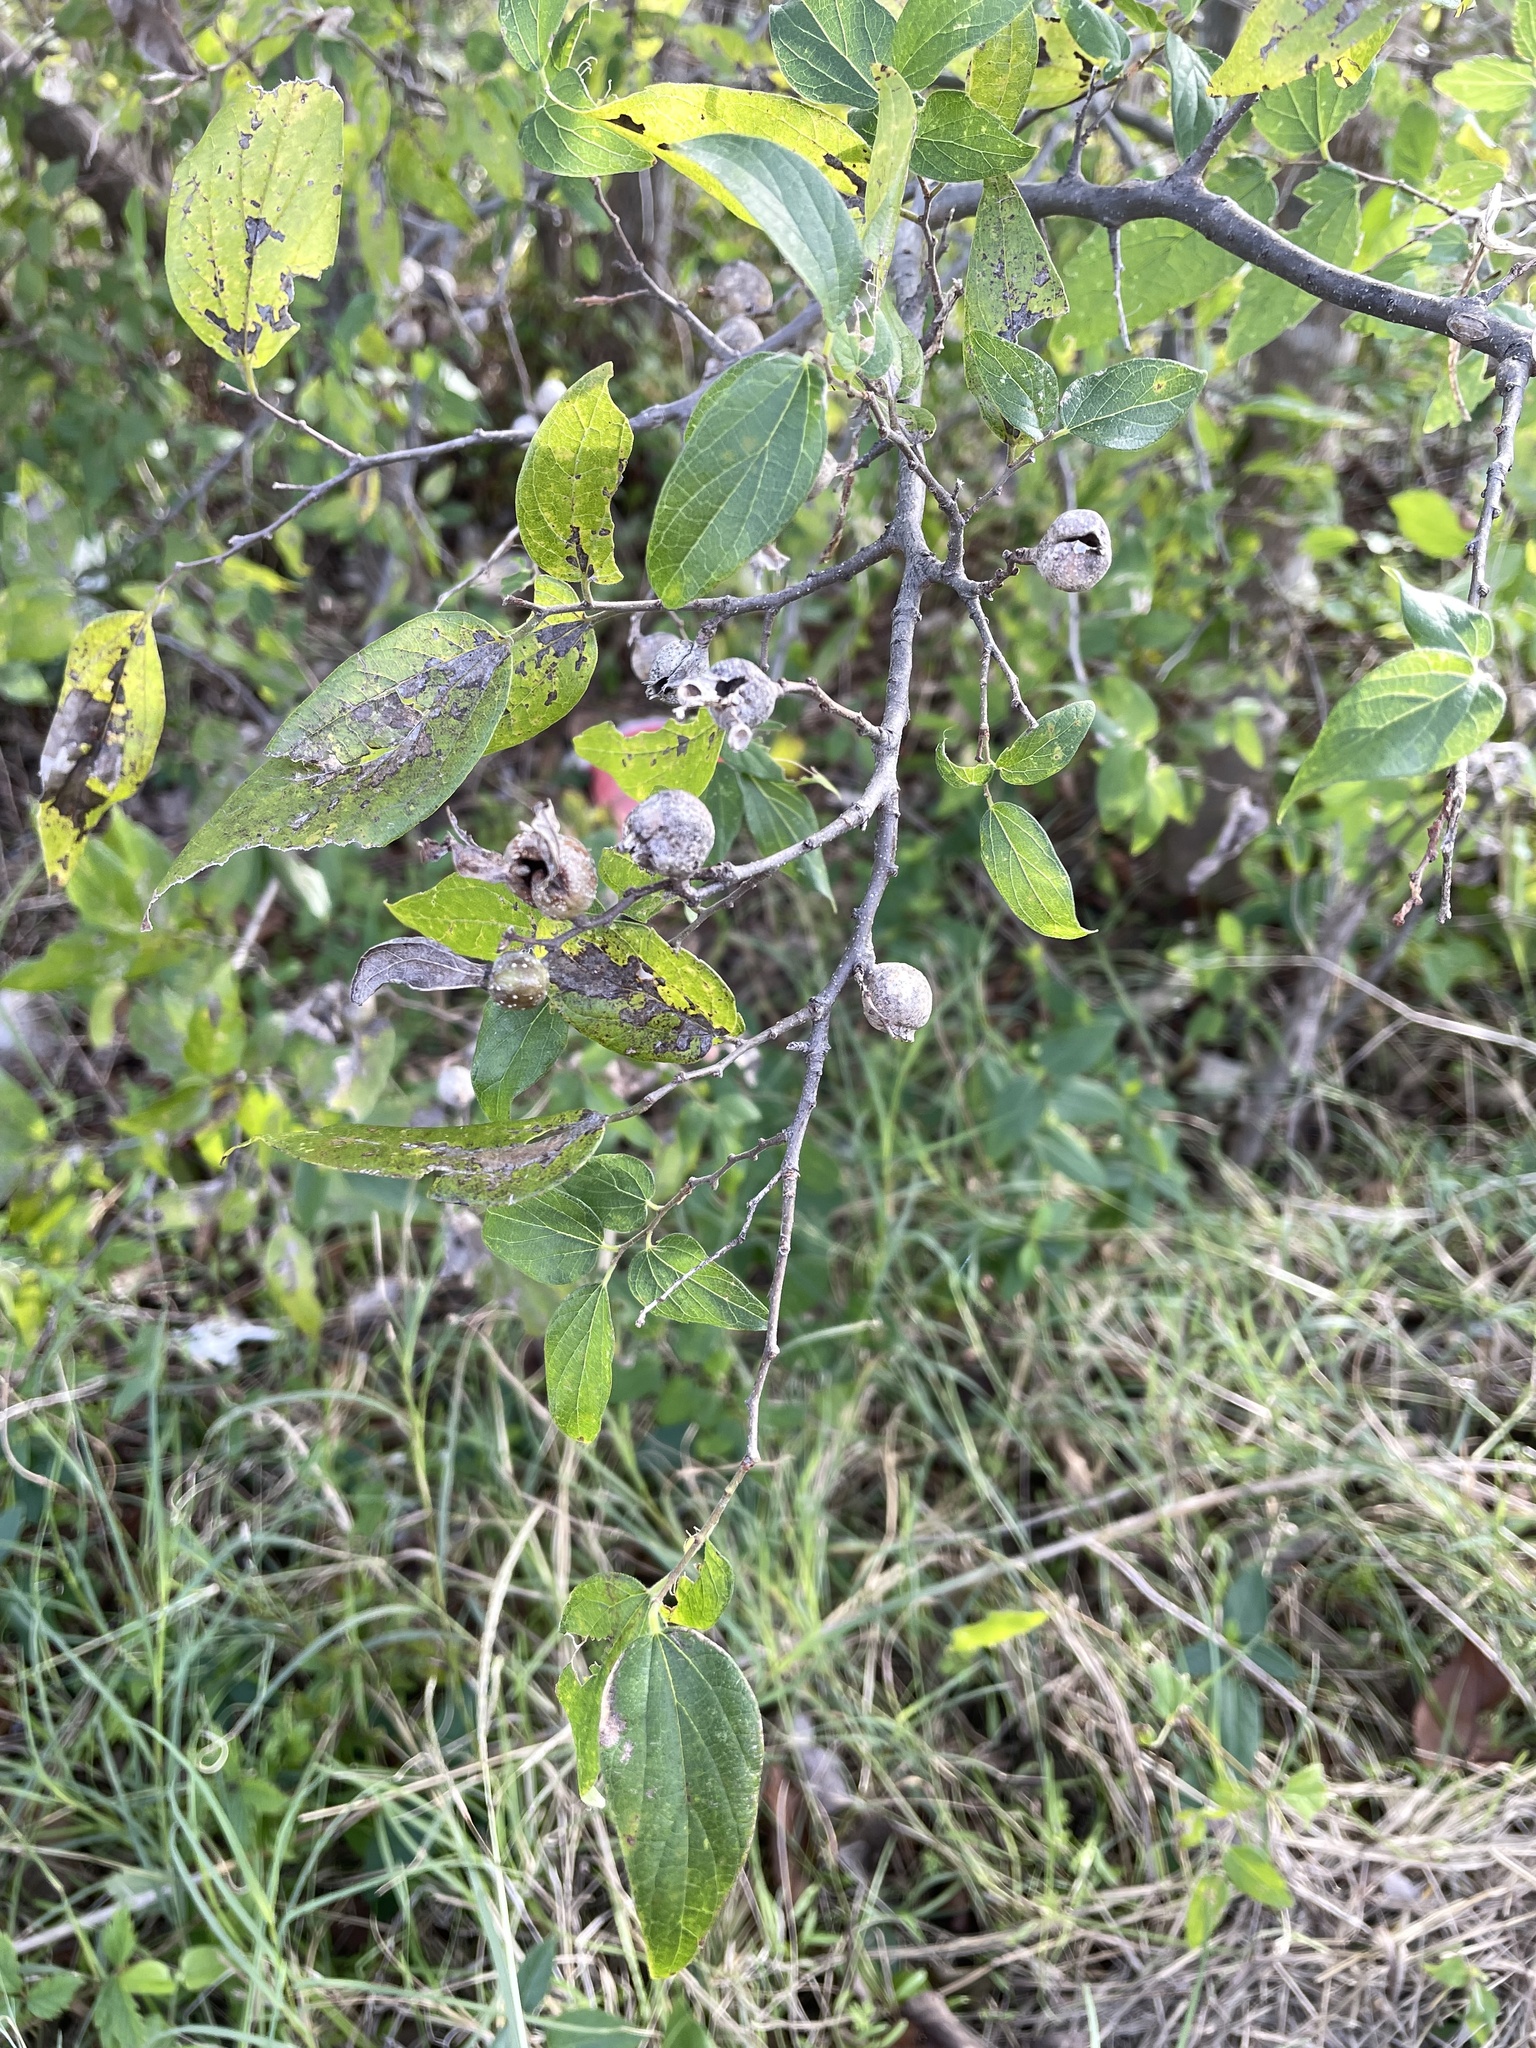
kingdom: Animalia
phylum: Arthropoda
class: Insecta
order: Hemiptera
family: Aphalaridae
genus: Pachypsylla
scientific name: Pachypsylla venusta
